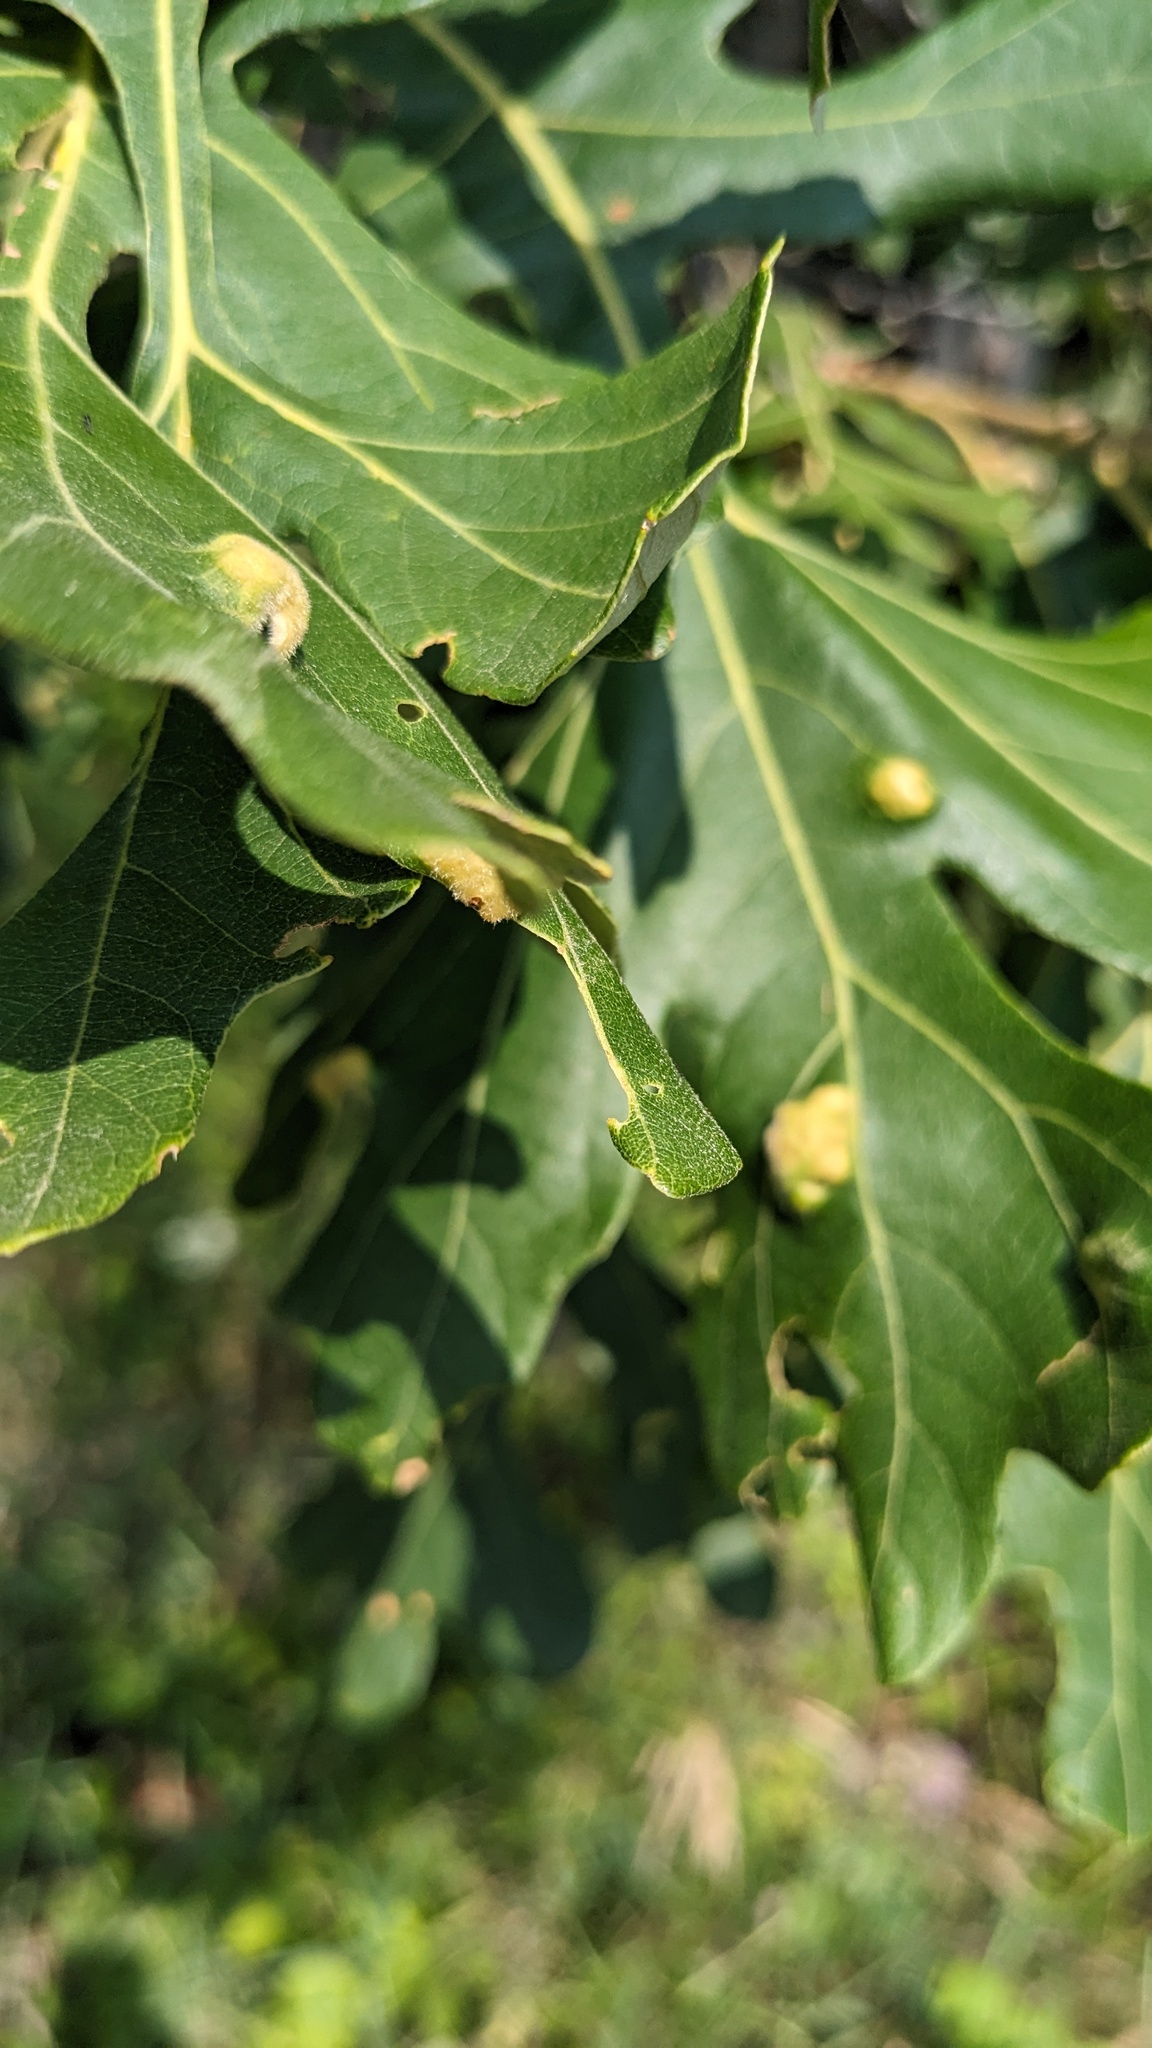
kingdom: Animalia
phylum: Arthropoda
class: Arachnida
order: Trombidiformes
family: Eriophyidae
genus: Aceria
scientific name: Aceria quercina
